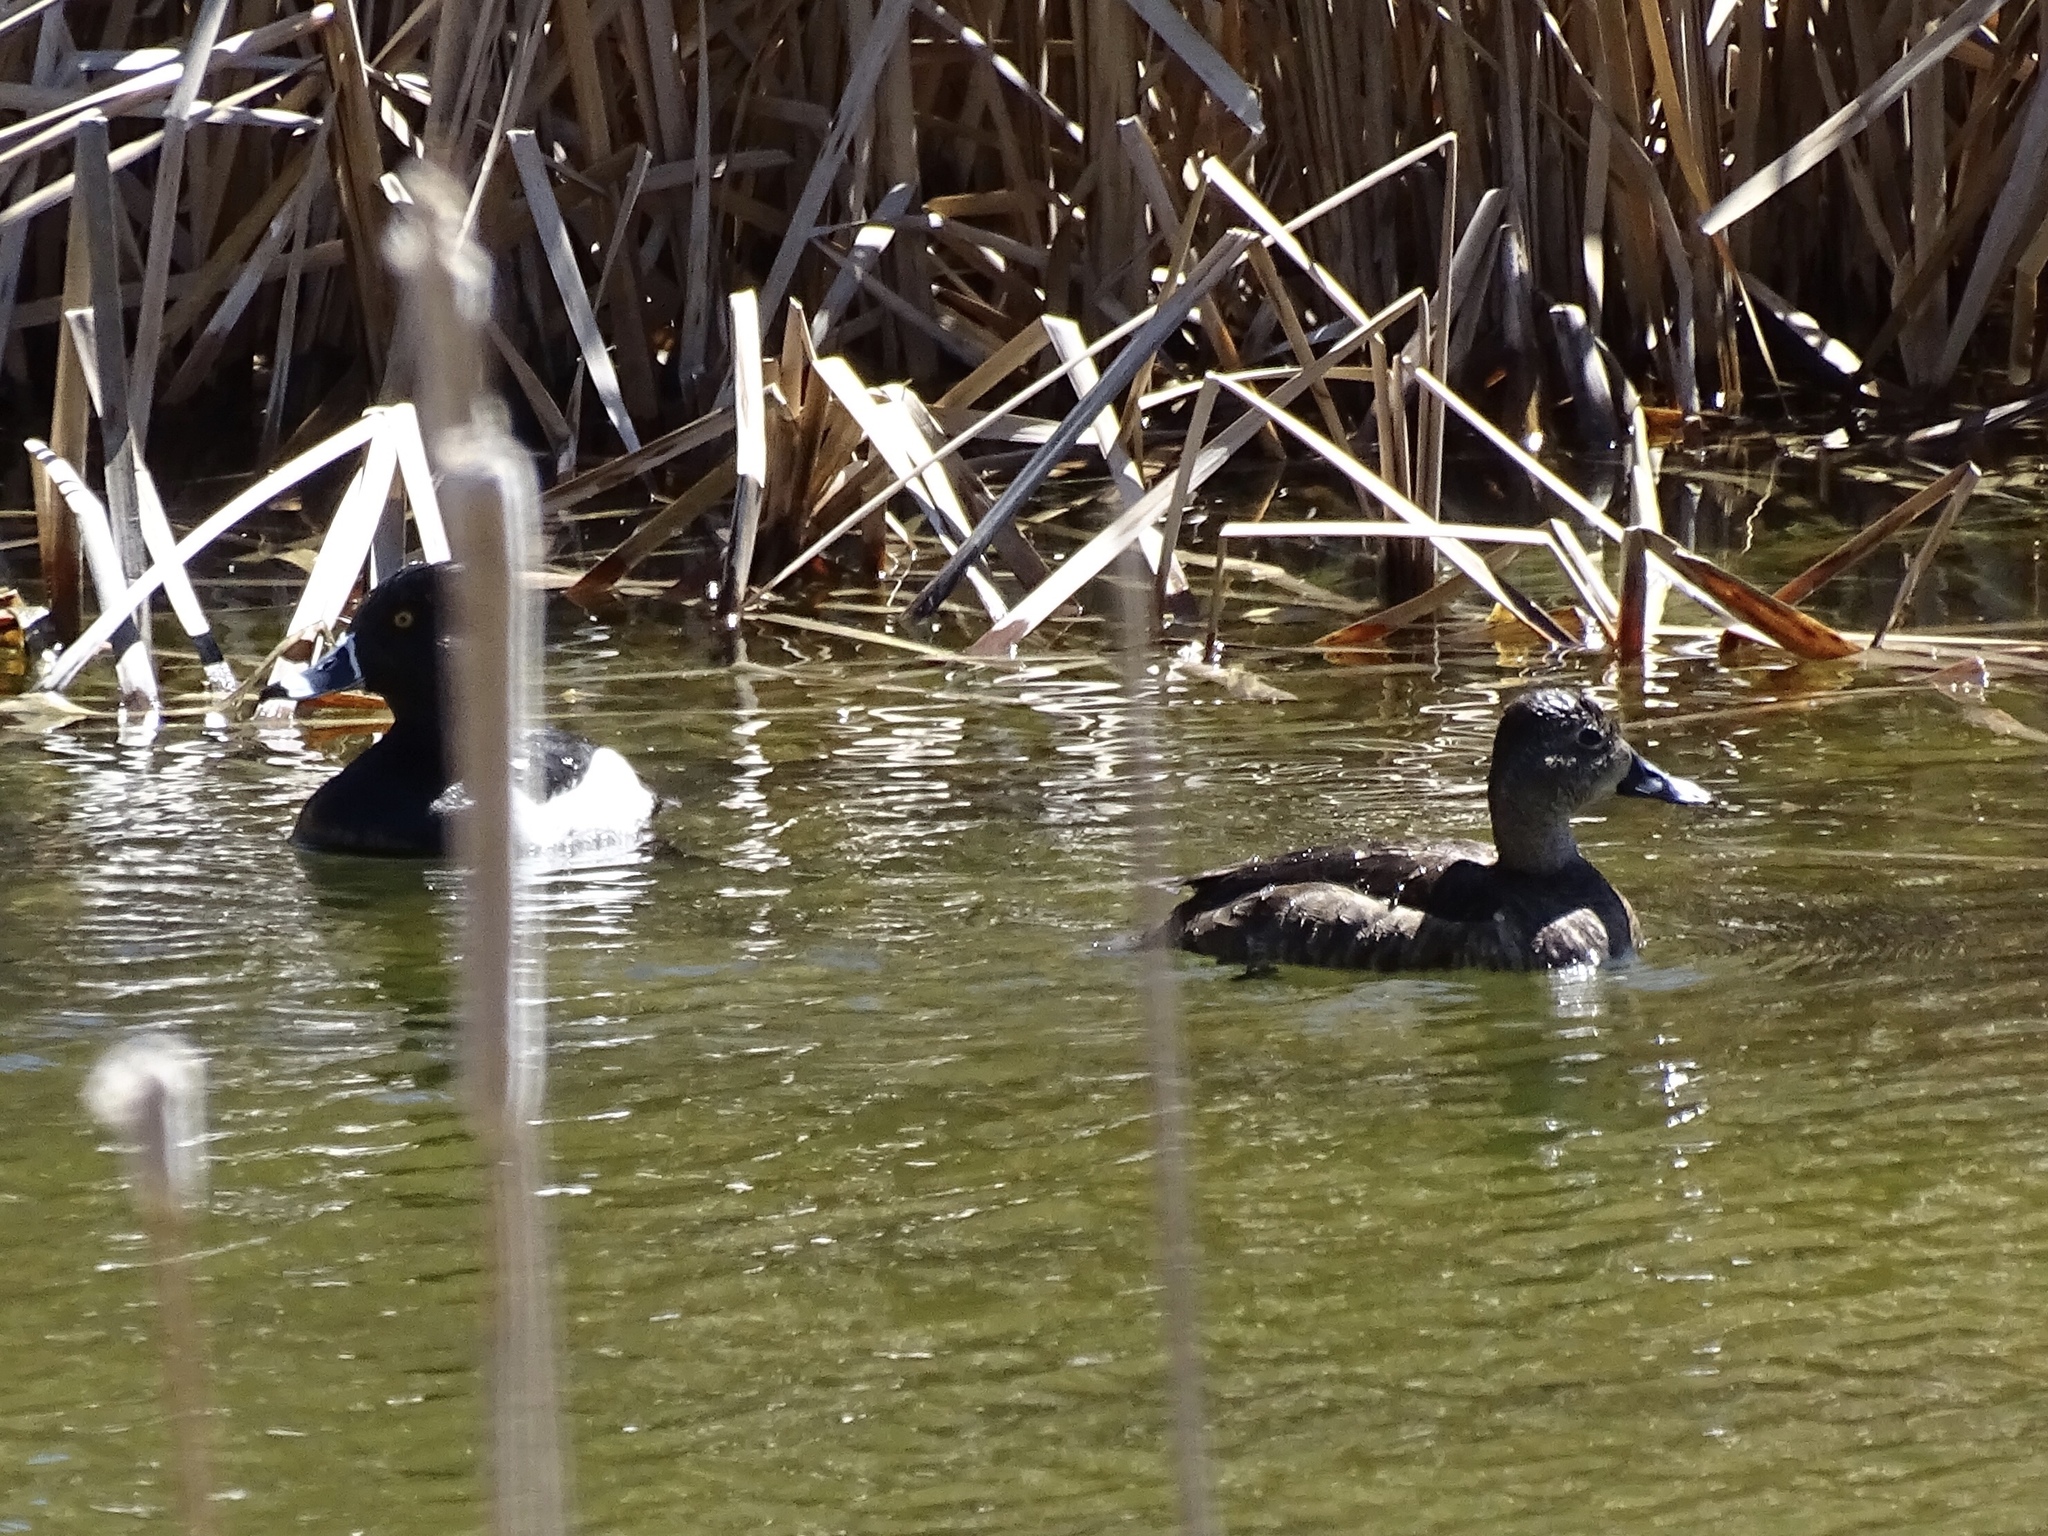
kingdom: Animalia
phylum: Chordata
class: Aves
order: Anseriformes
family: Anatidae
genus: Aythya
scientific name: Aythya collaris
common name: Ring-necked duck
